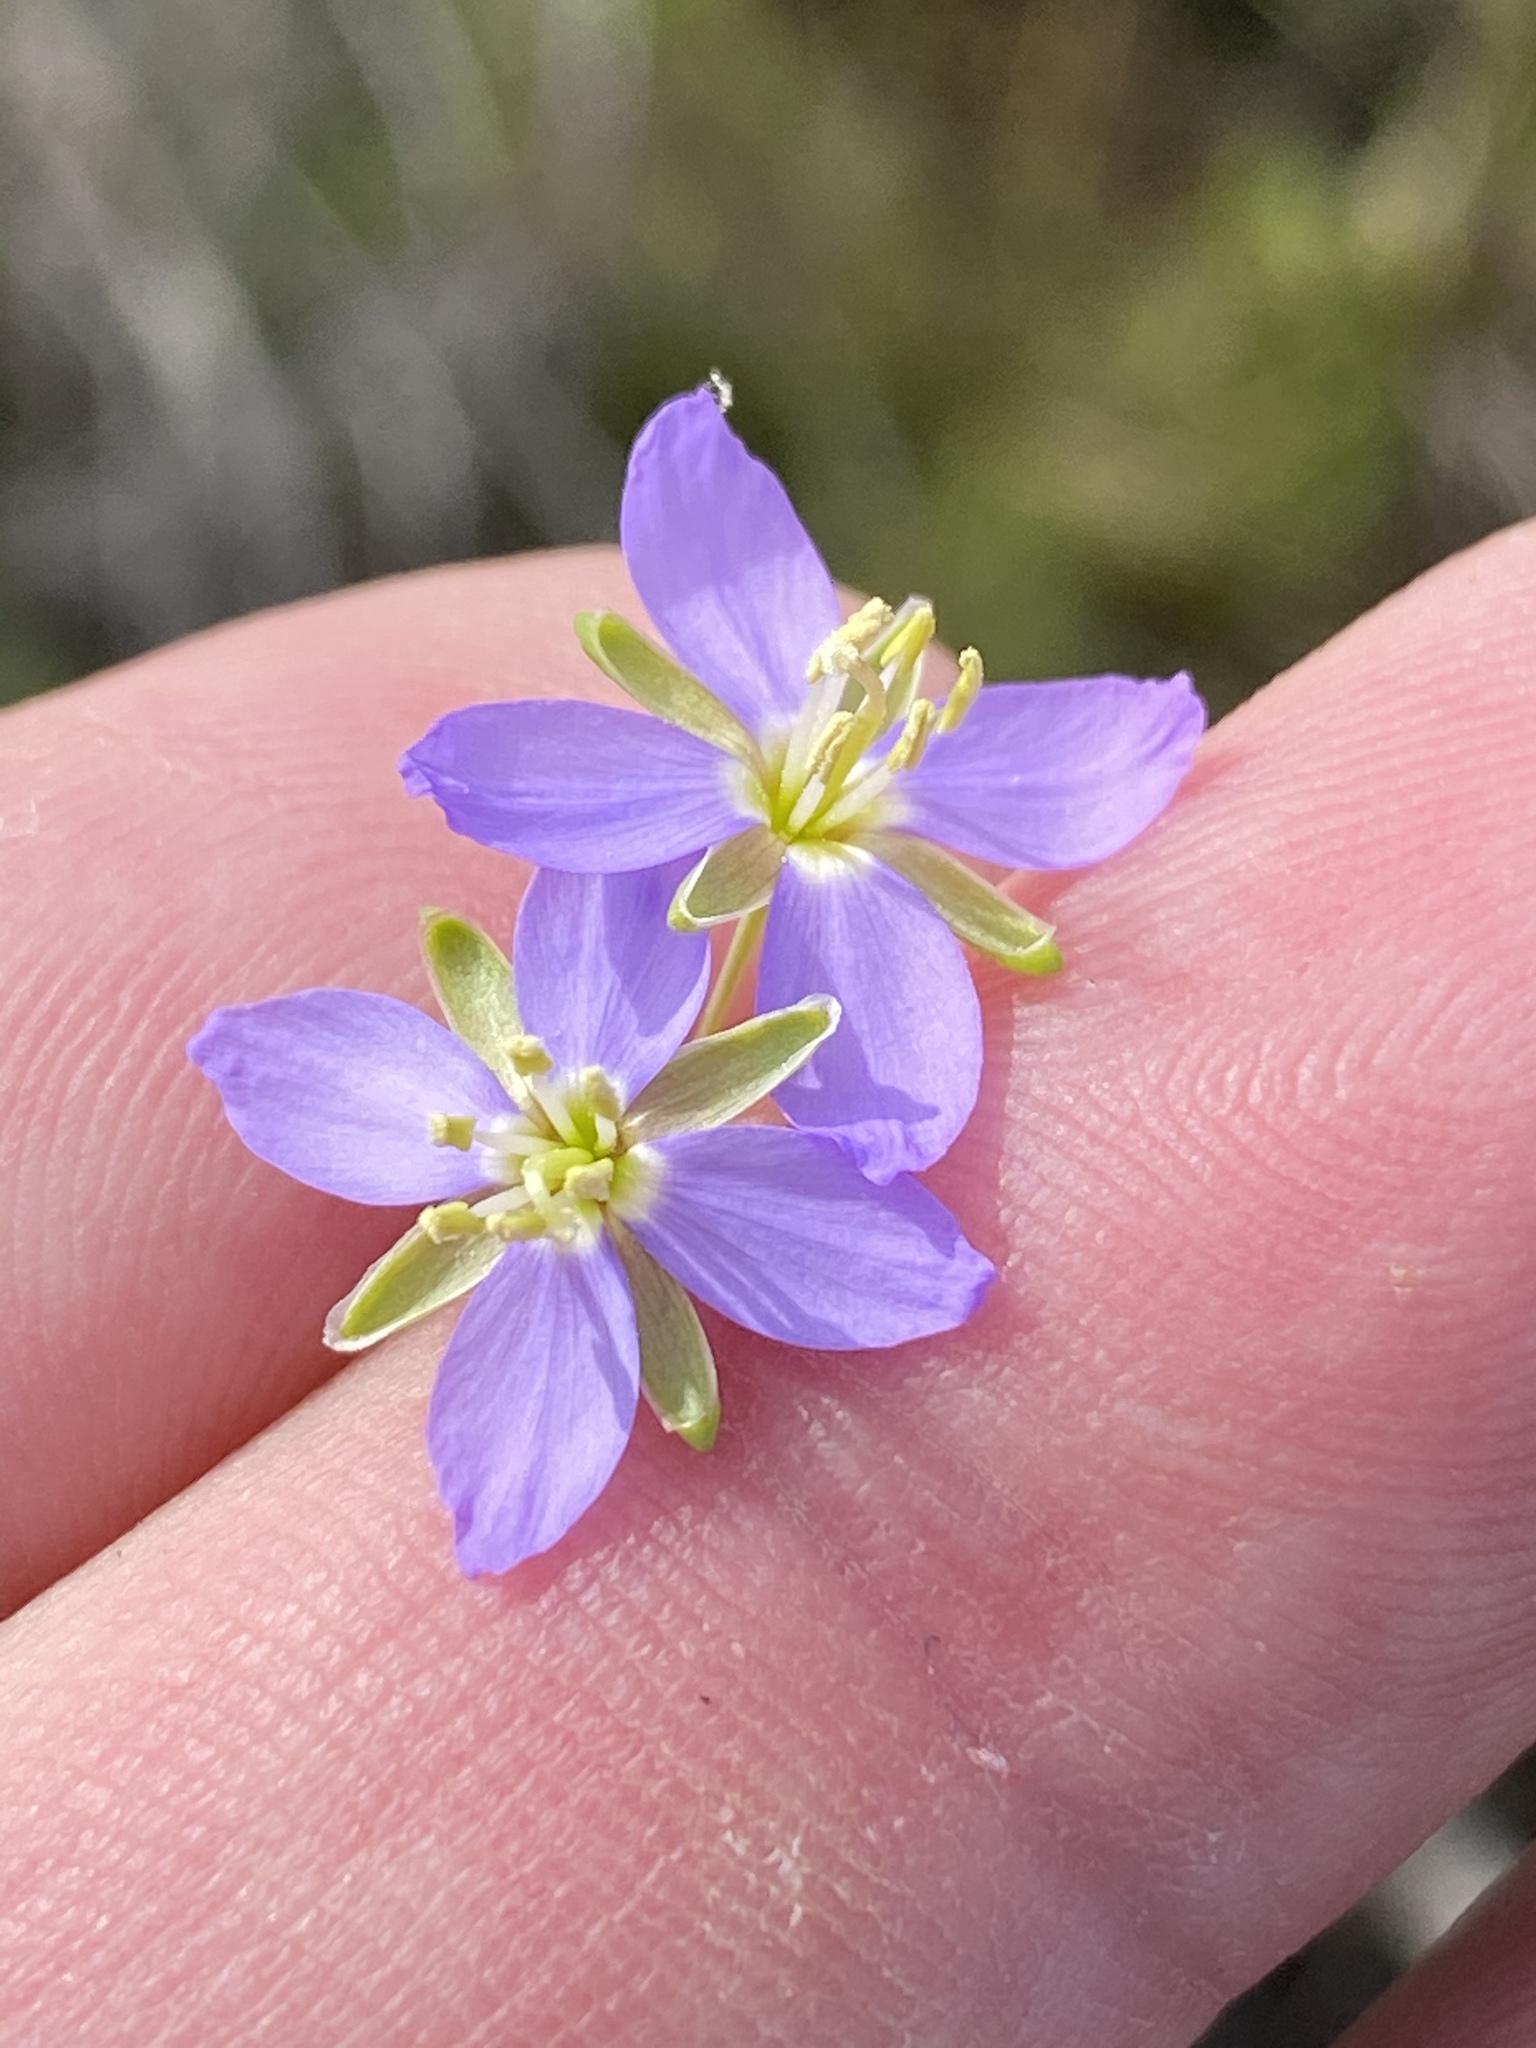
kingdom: Plantae
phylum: Tracheophyta
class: Magnoliopsida
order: Brassicales
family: Brassicaceae
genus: Heliophila
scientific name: Heliophila linearis
